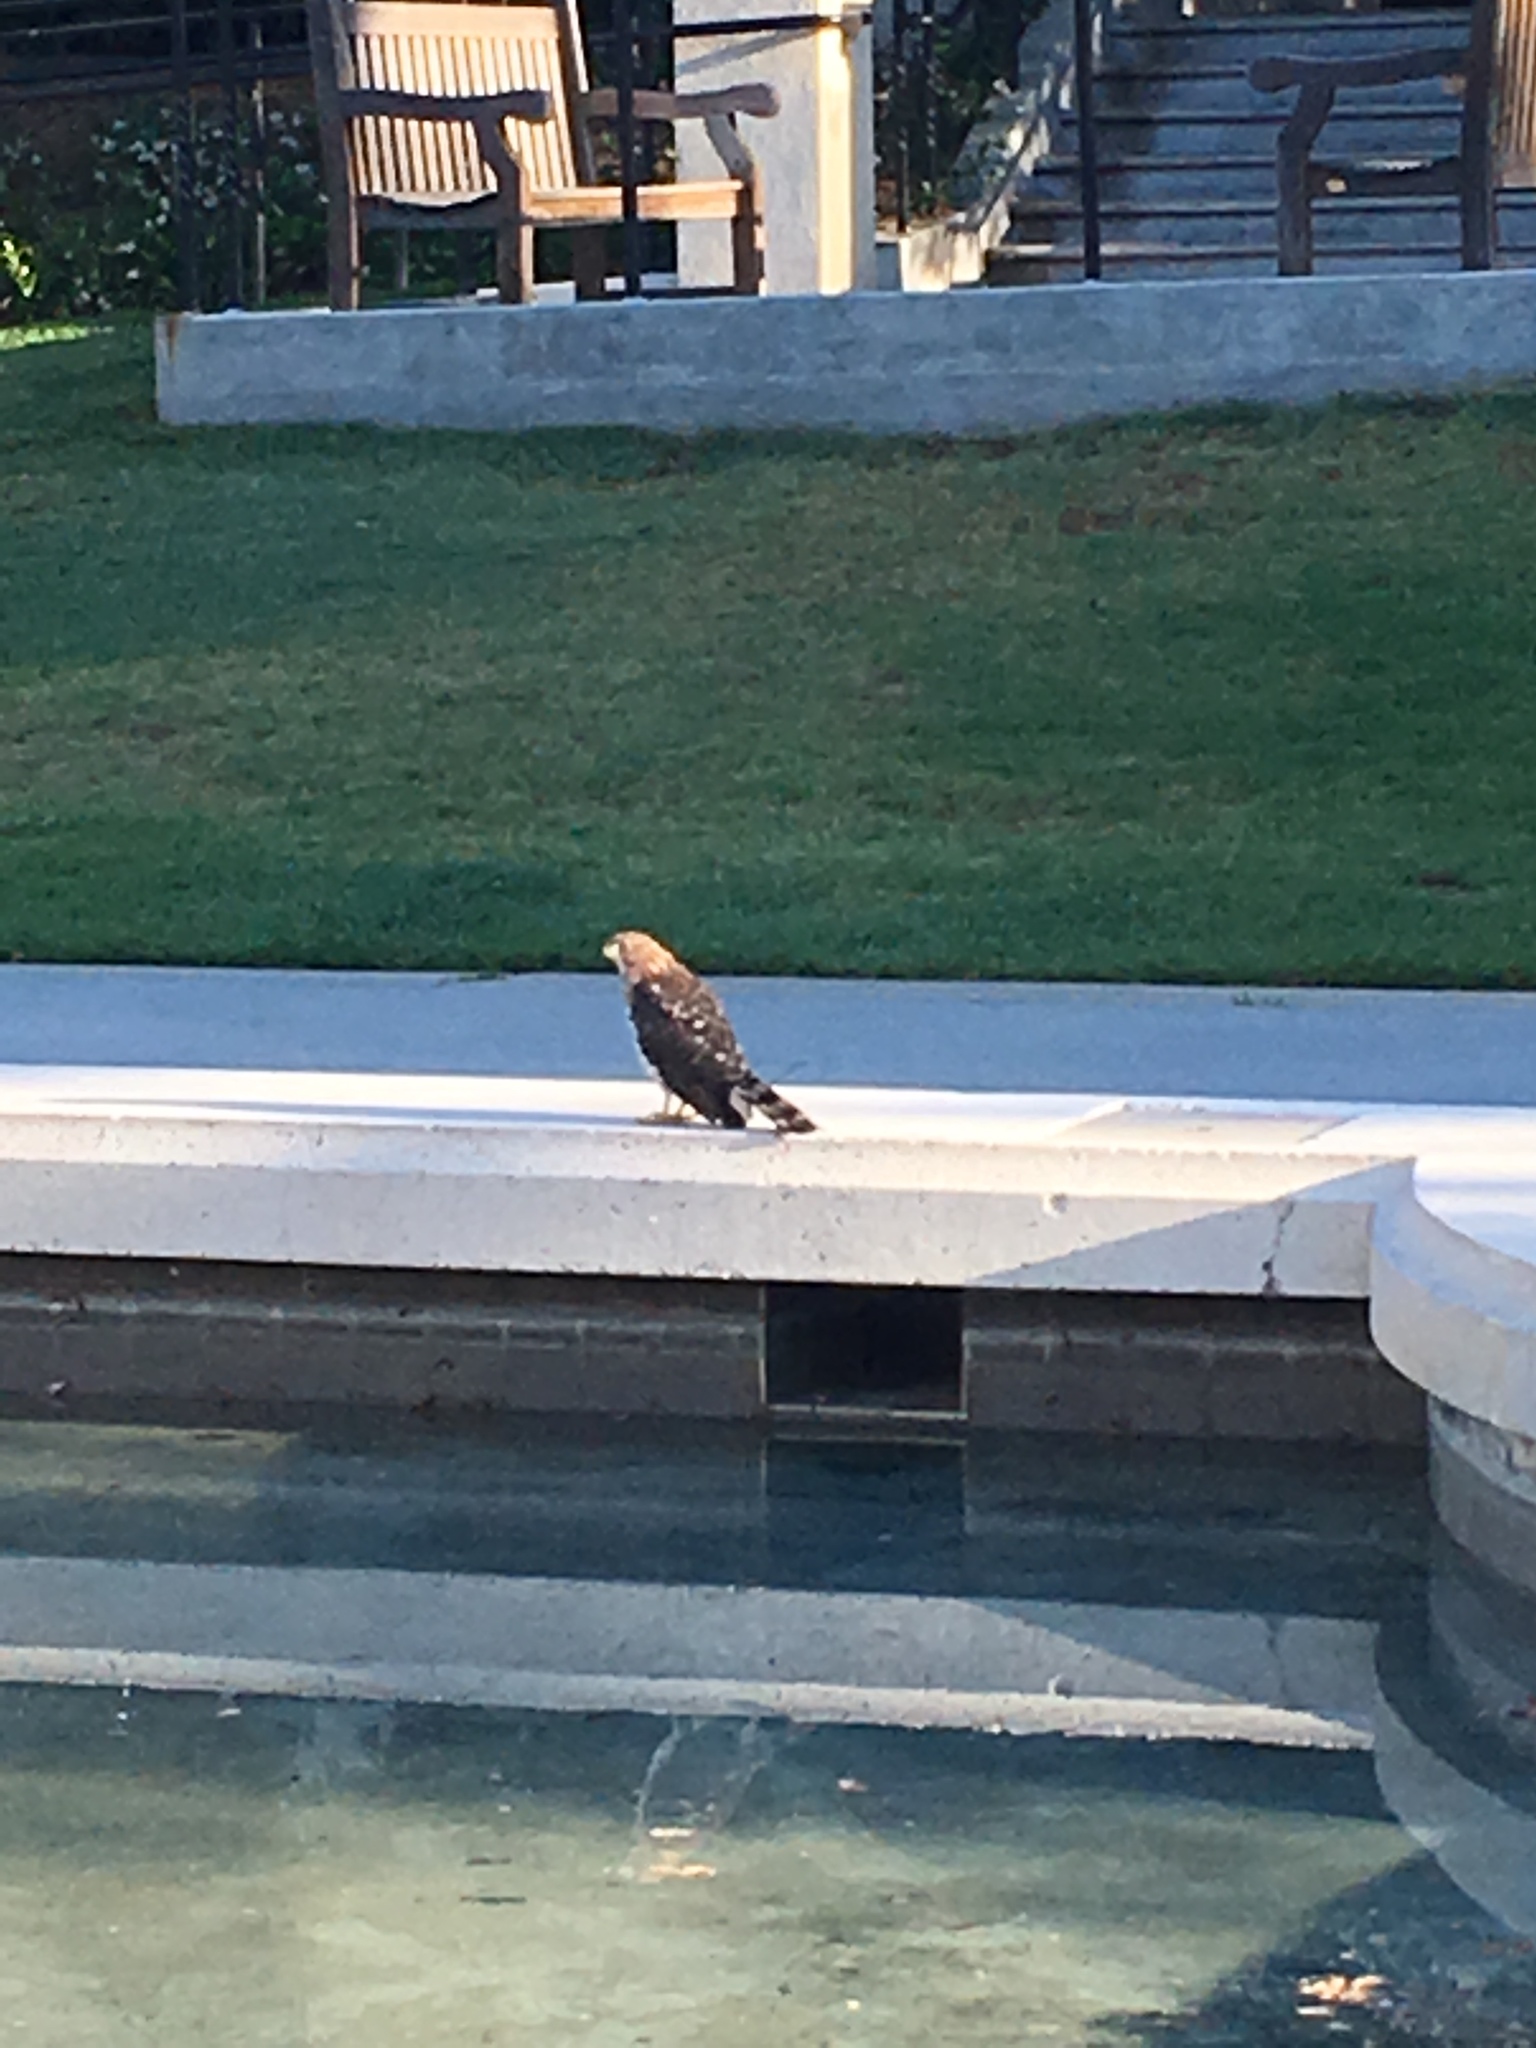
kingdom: Animalia
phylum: Chordata
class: Aves
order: Accipitriformes
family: Accipitridae
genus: Accipiter
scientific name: Accipiter cooperii
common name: Cooper's hawk
